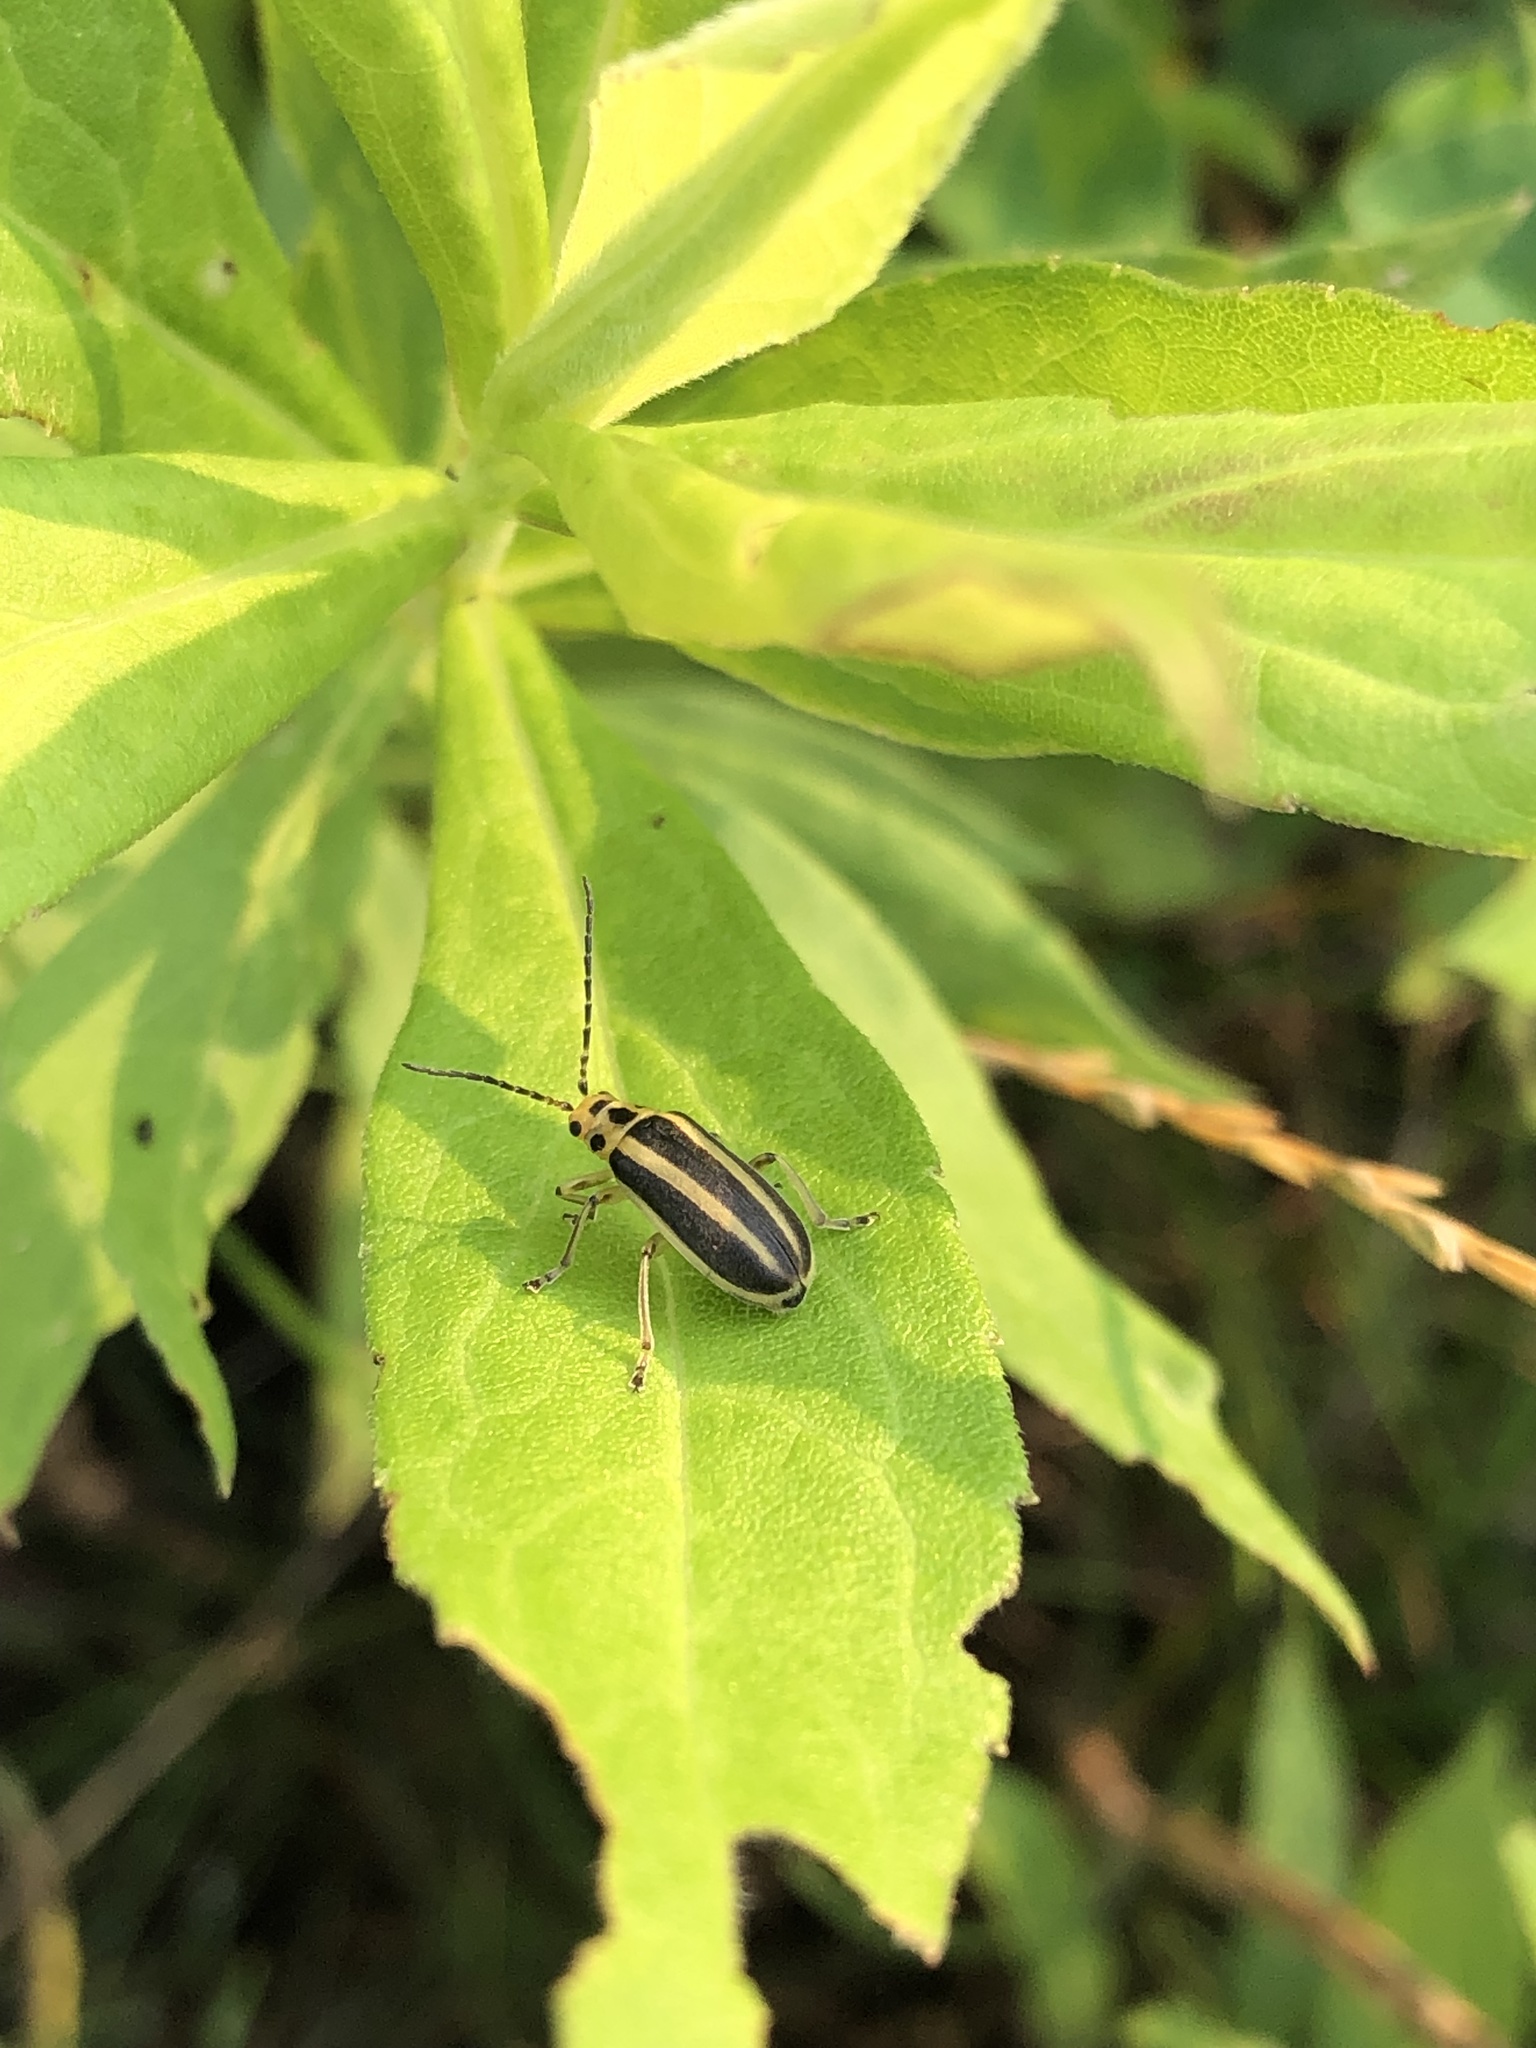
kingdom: Animalia
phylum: Arthropoda
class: Insecta
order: Coleoptera
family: Chrysomelidae
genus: Trirhabda
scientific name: Trirhabda canadensis
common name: Goldenrod leaf beetle
